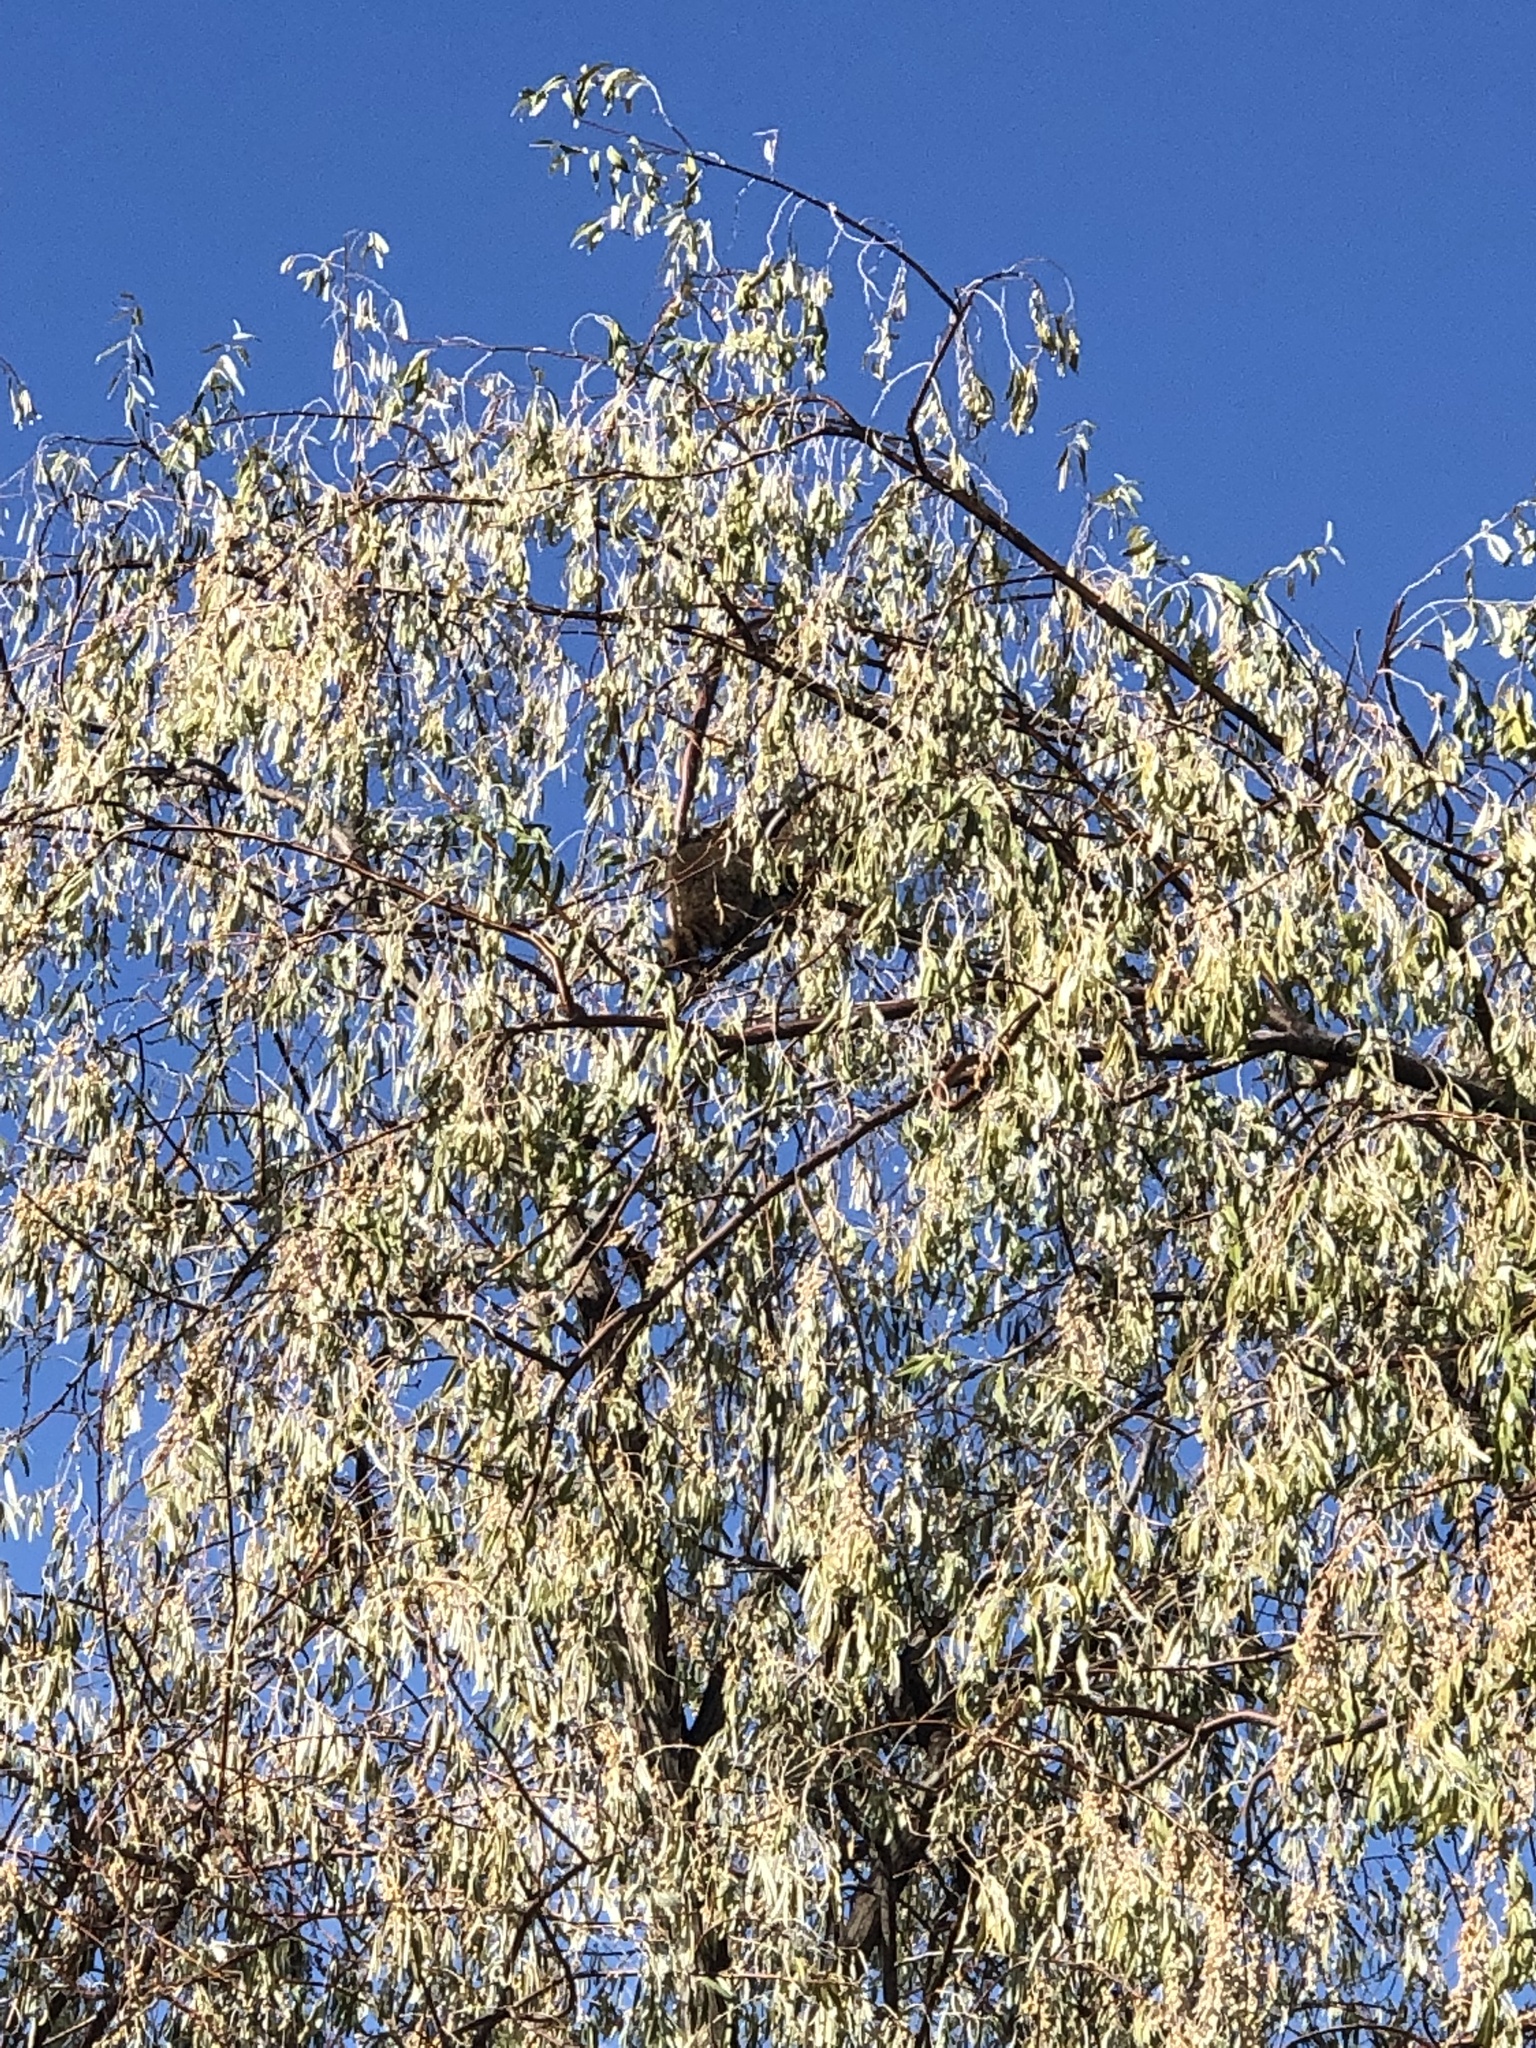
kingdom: Animalia
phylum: Chordata
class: Mammalia
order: Carnivora
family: Procyonidae
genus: Procyon
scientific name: Procyon lotor
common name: Raccoon
